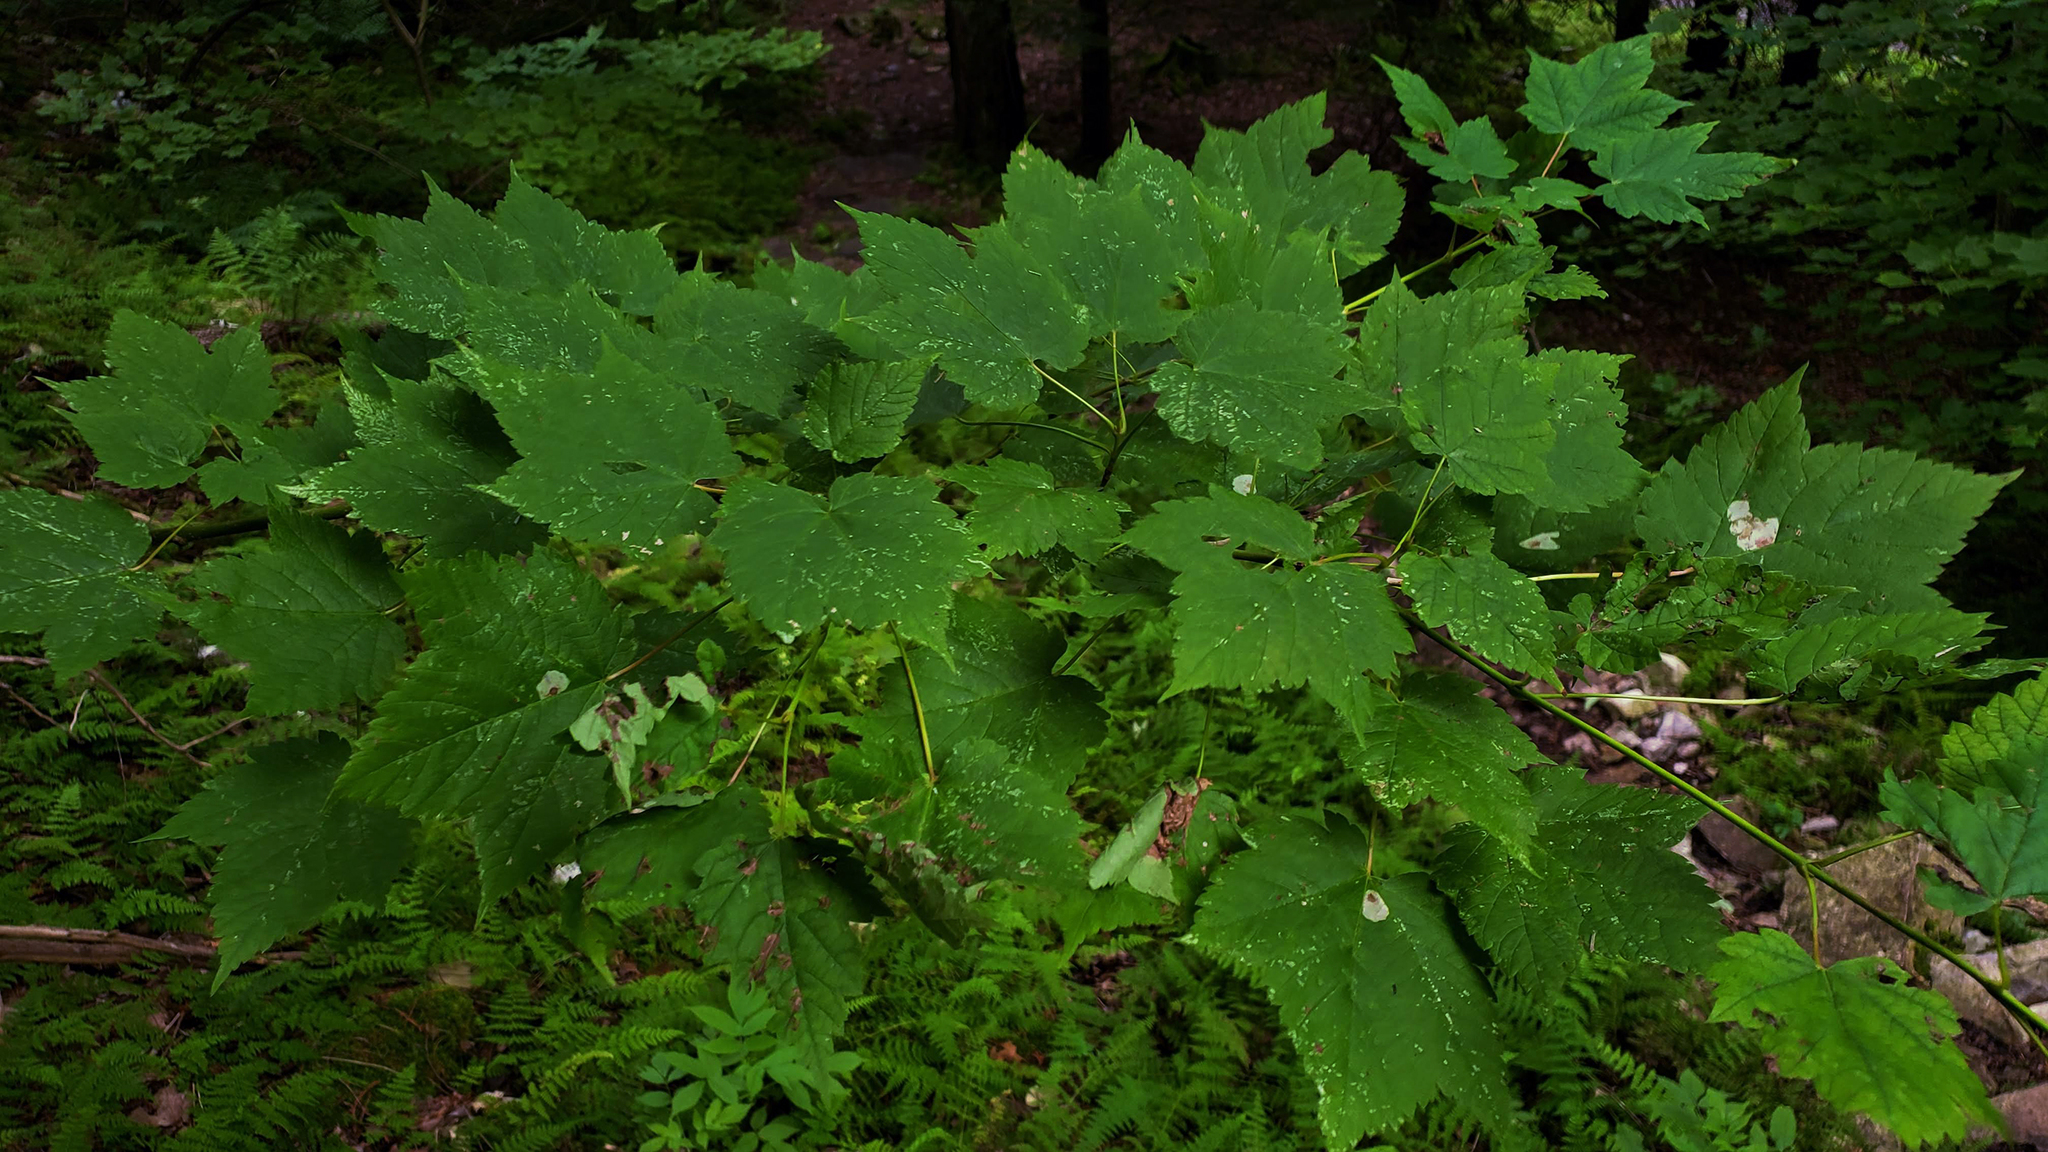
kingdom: Plantae
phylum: Tracheophyta
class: Magnoliopsida
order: Sapindales
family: Sapindaceae
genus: Acer
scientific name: Acer spicatum
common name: Mountain maple
